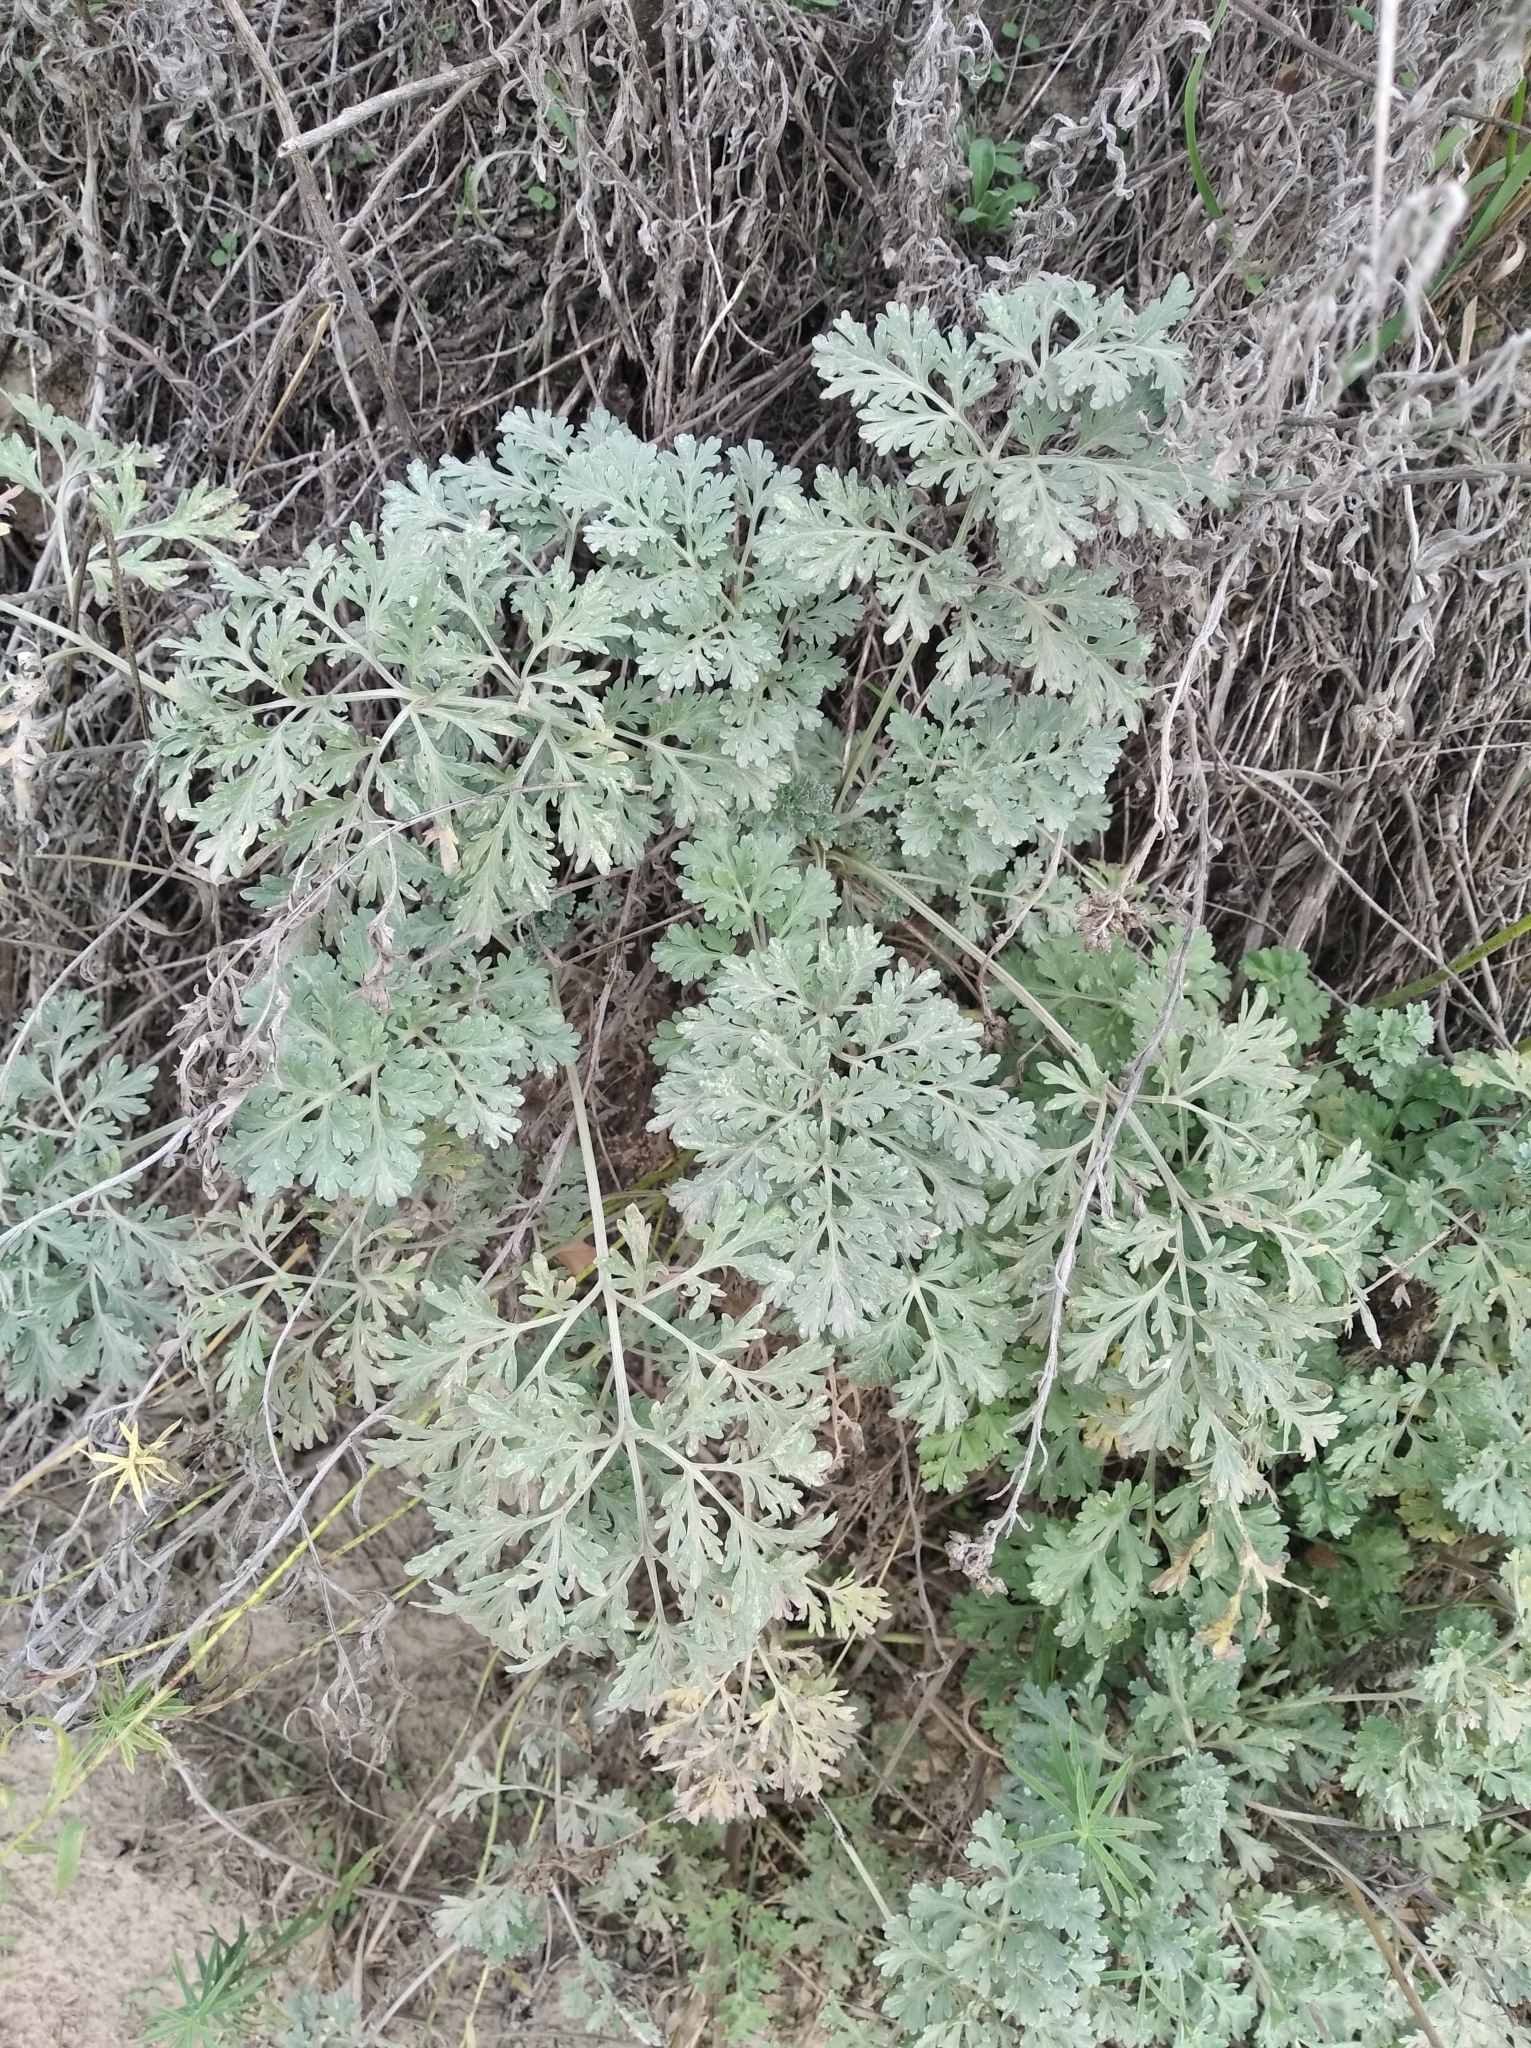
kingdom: Plantae
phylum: Tracheophyta
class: Magnoliopsida
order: Asterales
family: Asteraceae
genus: Artemisia
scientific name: Artemisia absinthium
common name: Wormwood
